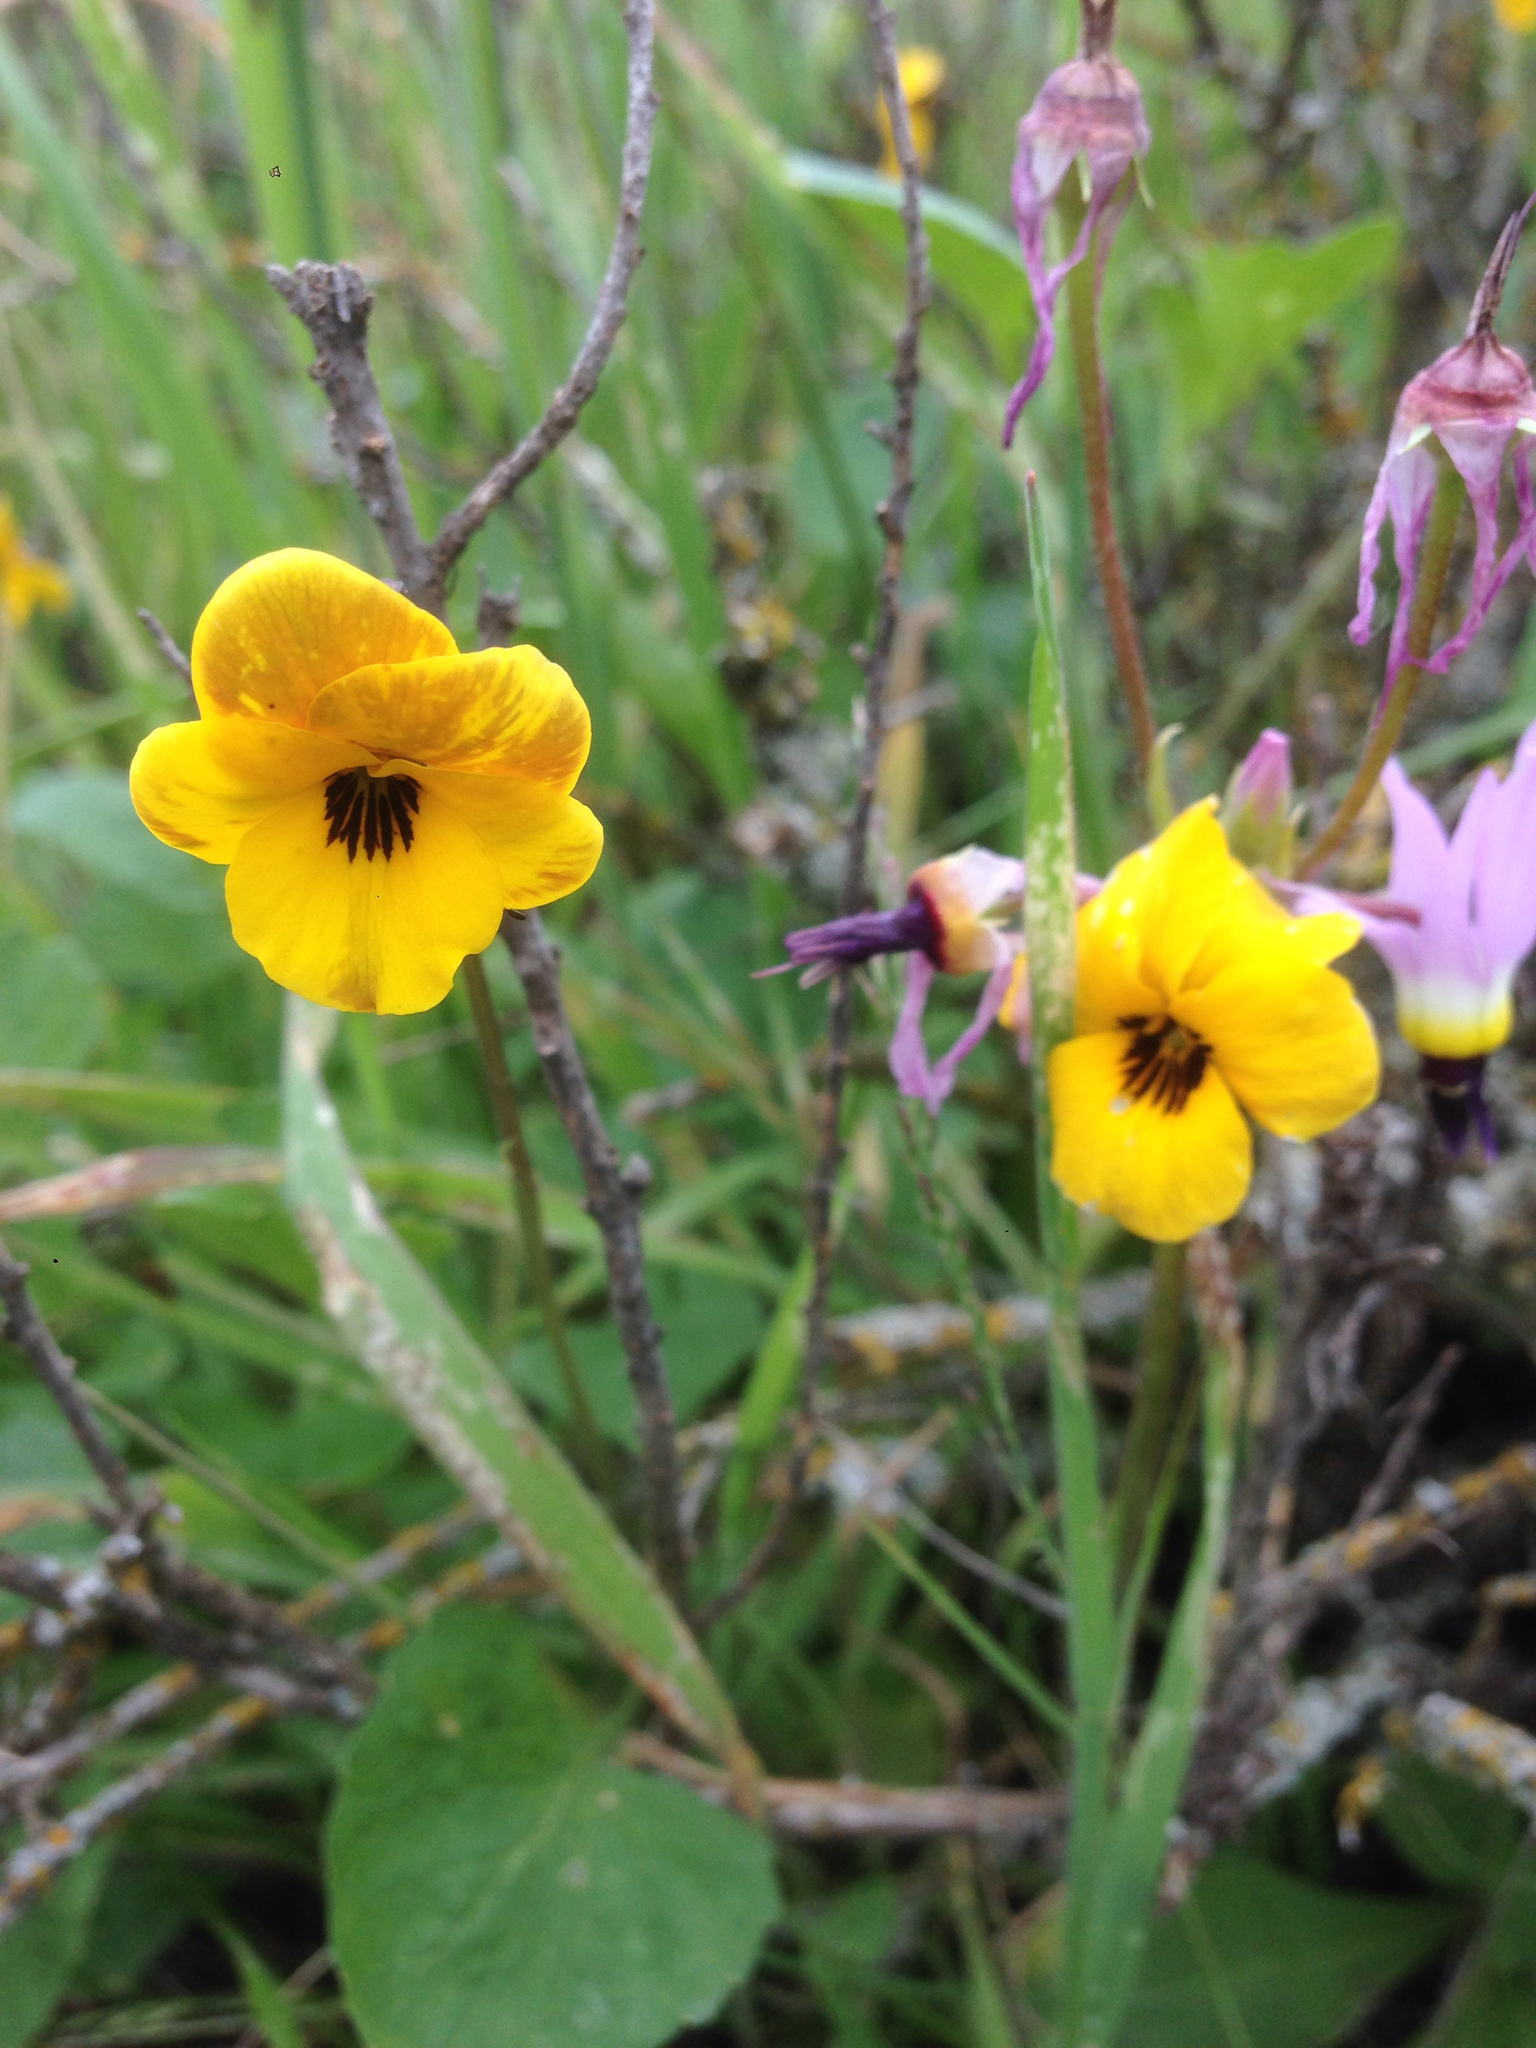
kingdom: Plantae
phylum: Tracheophyta
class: Magnoliopsida
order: Malpighiales
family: Violaceae
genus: Viola
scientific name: Viola pedunculata
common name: California golden violet
